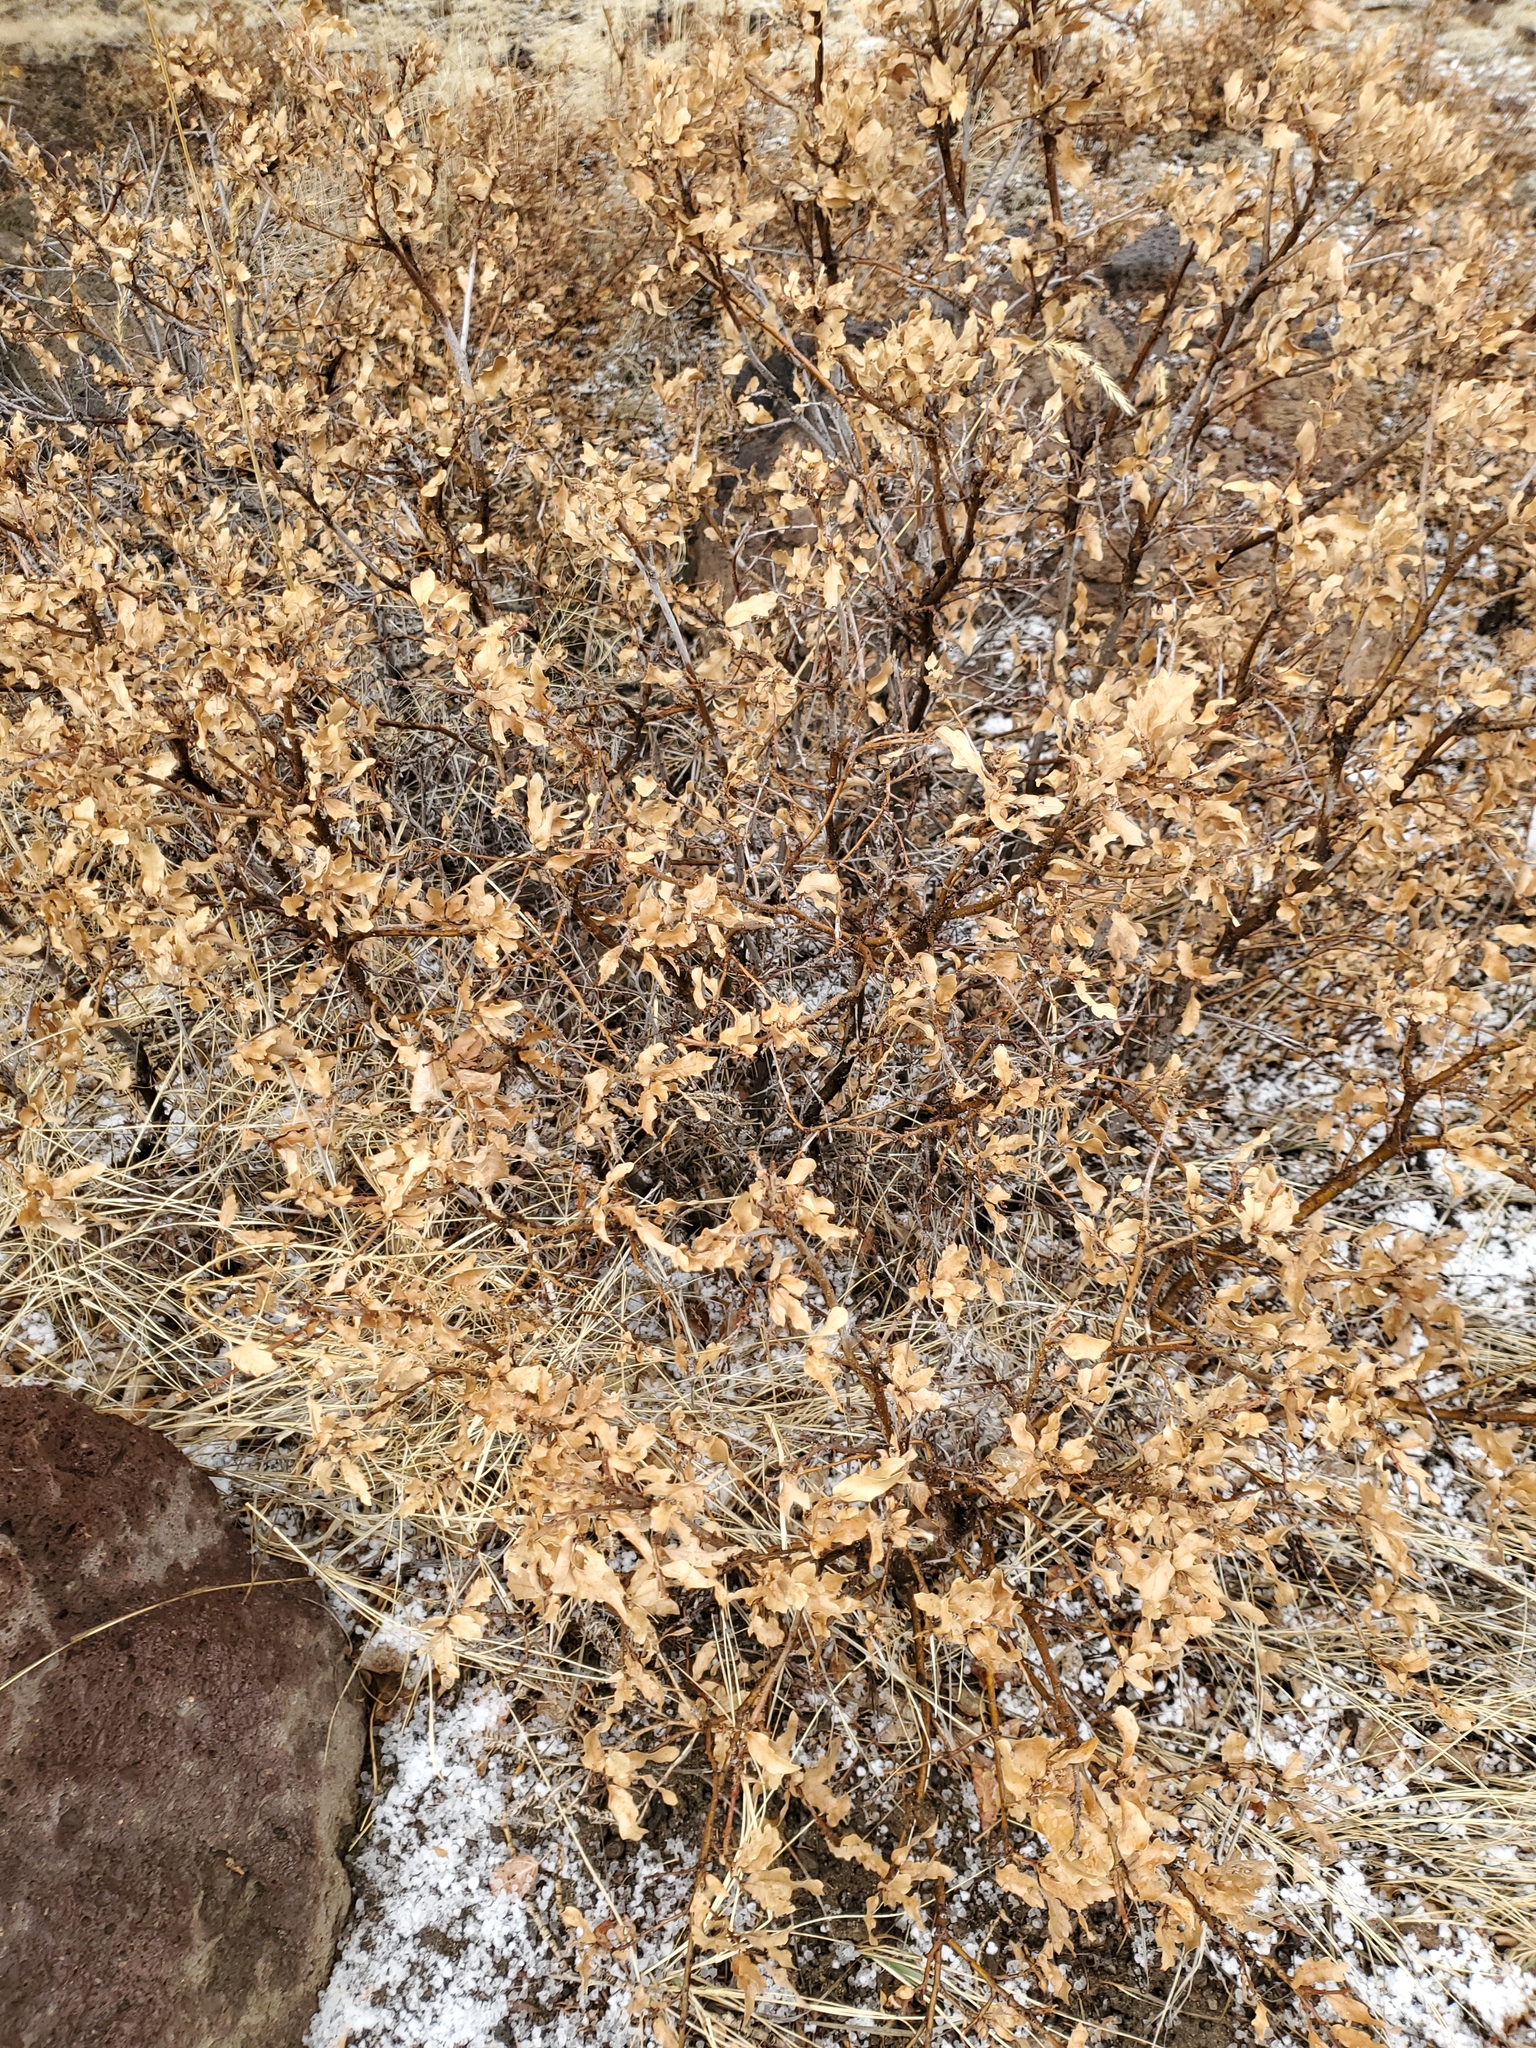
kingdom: Plantae
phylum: Tracheophyta
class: Magnoliopsida
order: Fagales
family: Fagaceae
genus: Quercus
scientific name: Quercus undulata
